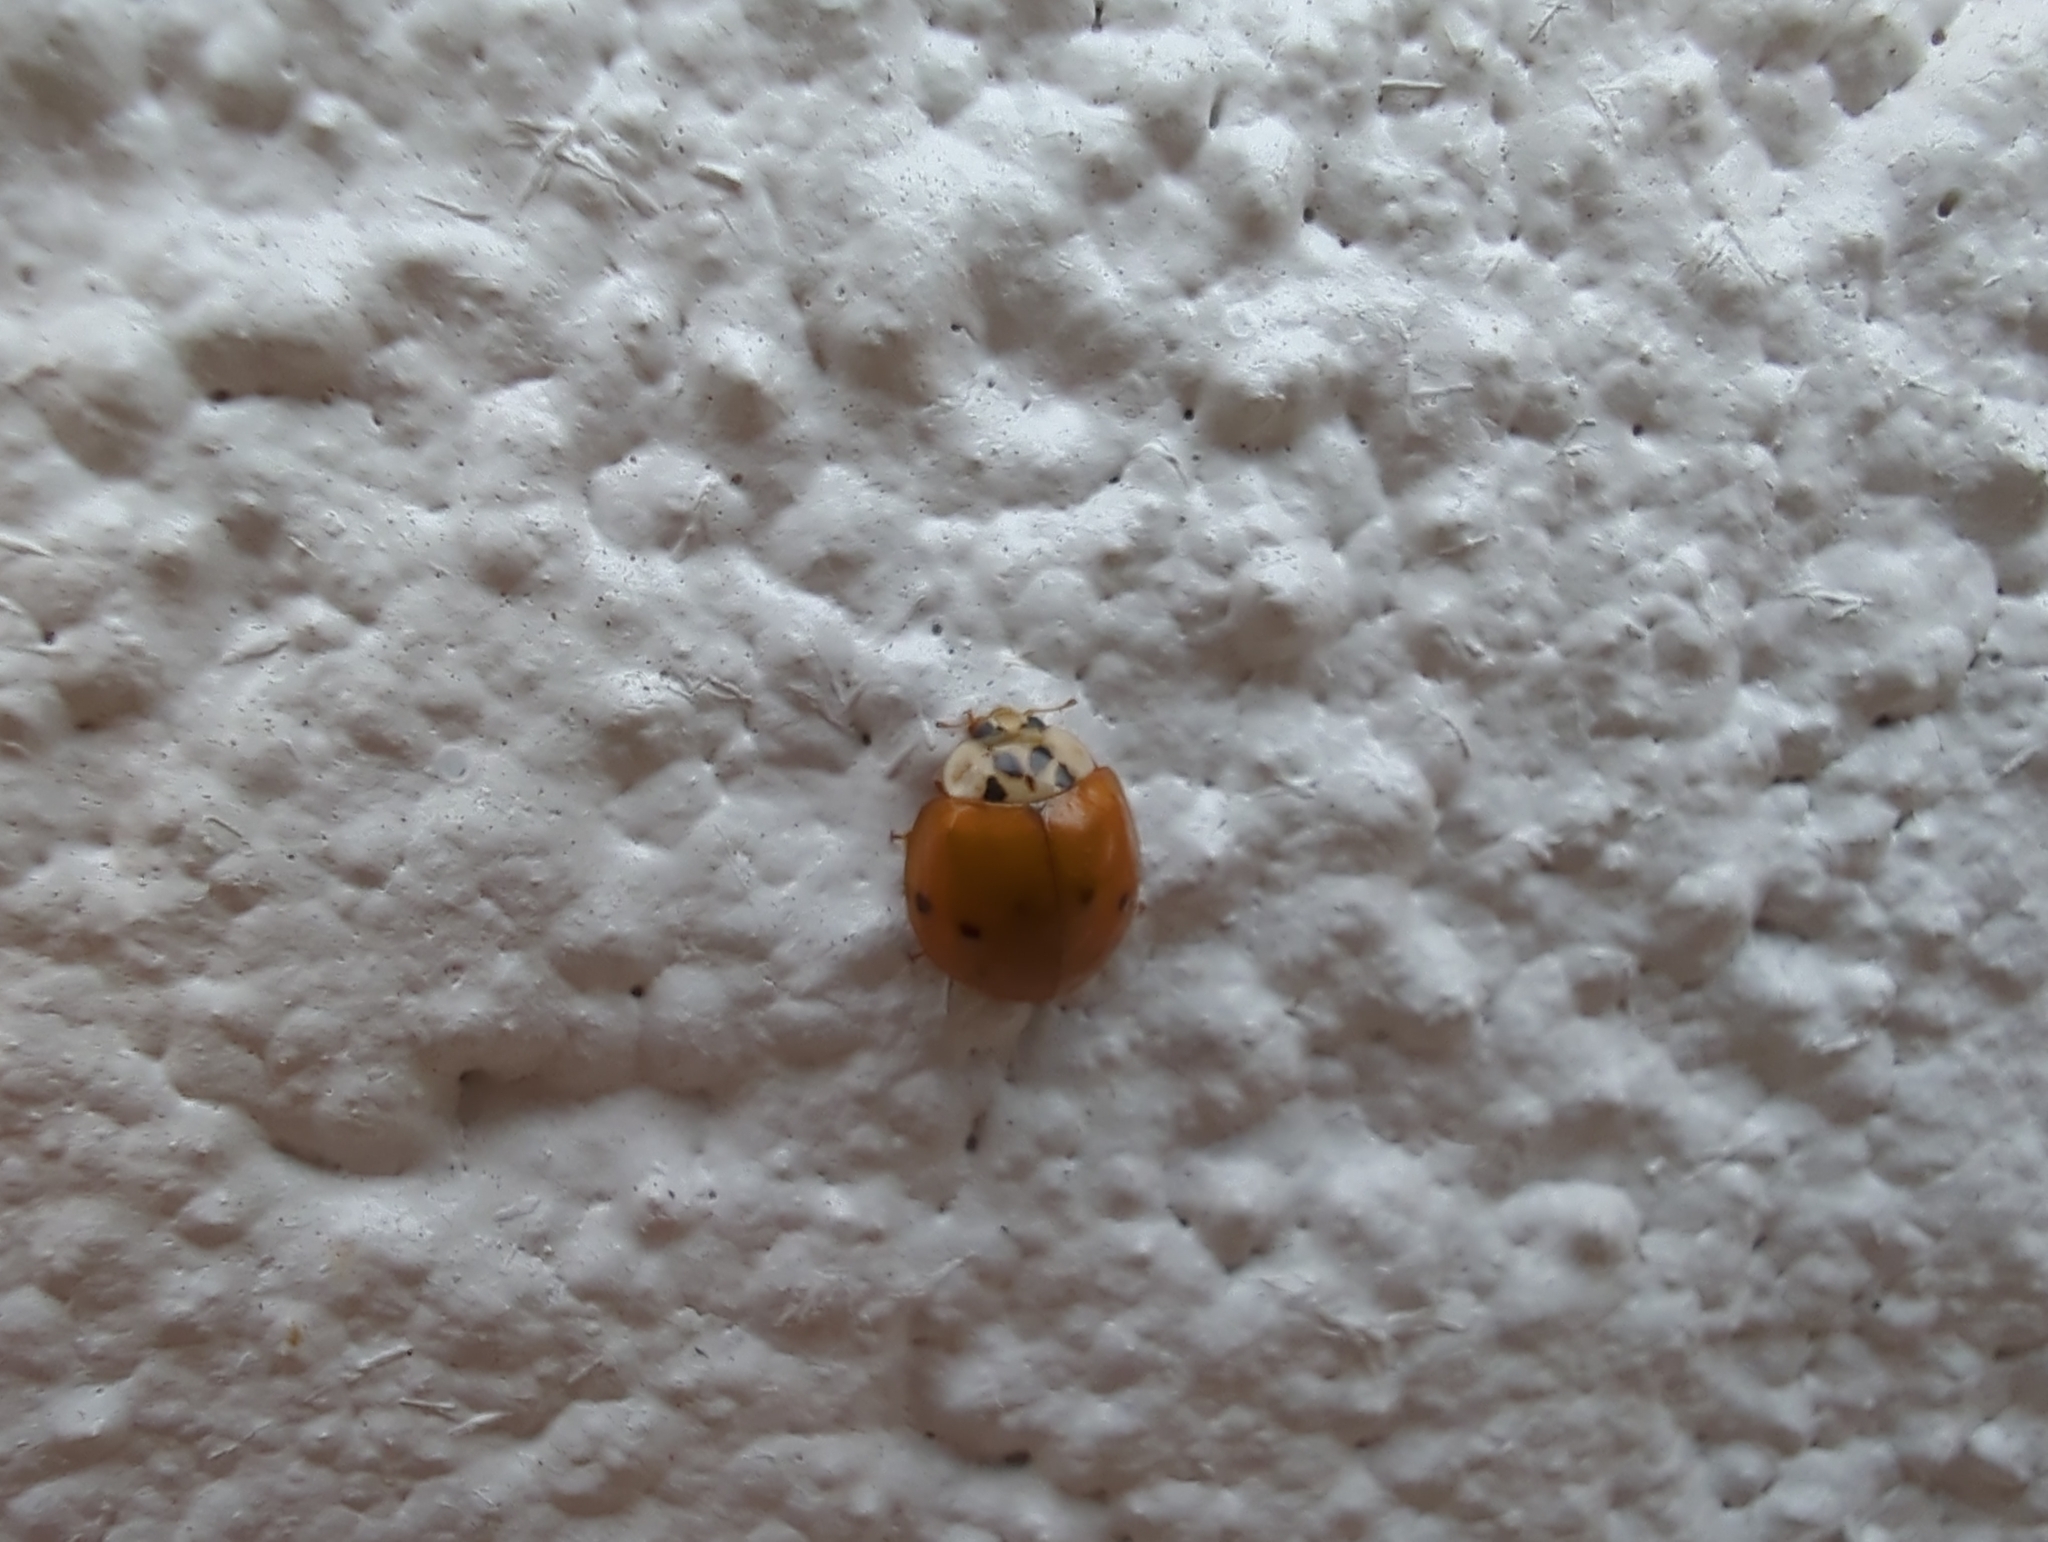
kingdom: Animalia
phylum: Arthropoda
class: Insecta
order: Coleoptera
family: Coccinellidae
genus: Harmonia
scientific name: Harmonia axyridis
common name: Harlequin ladybird
